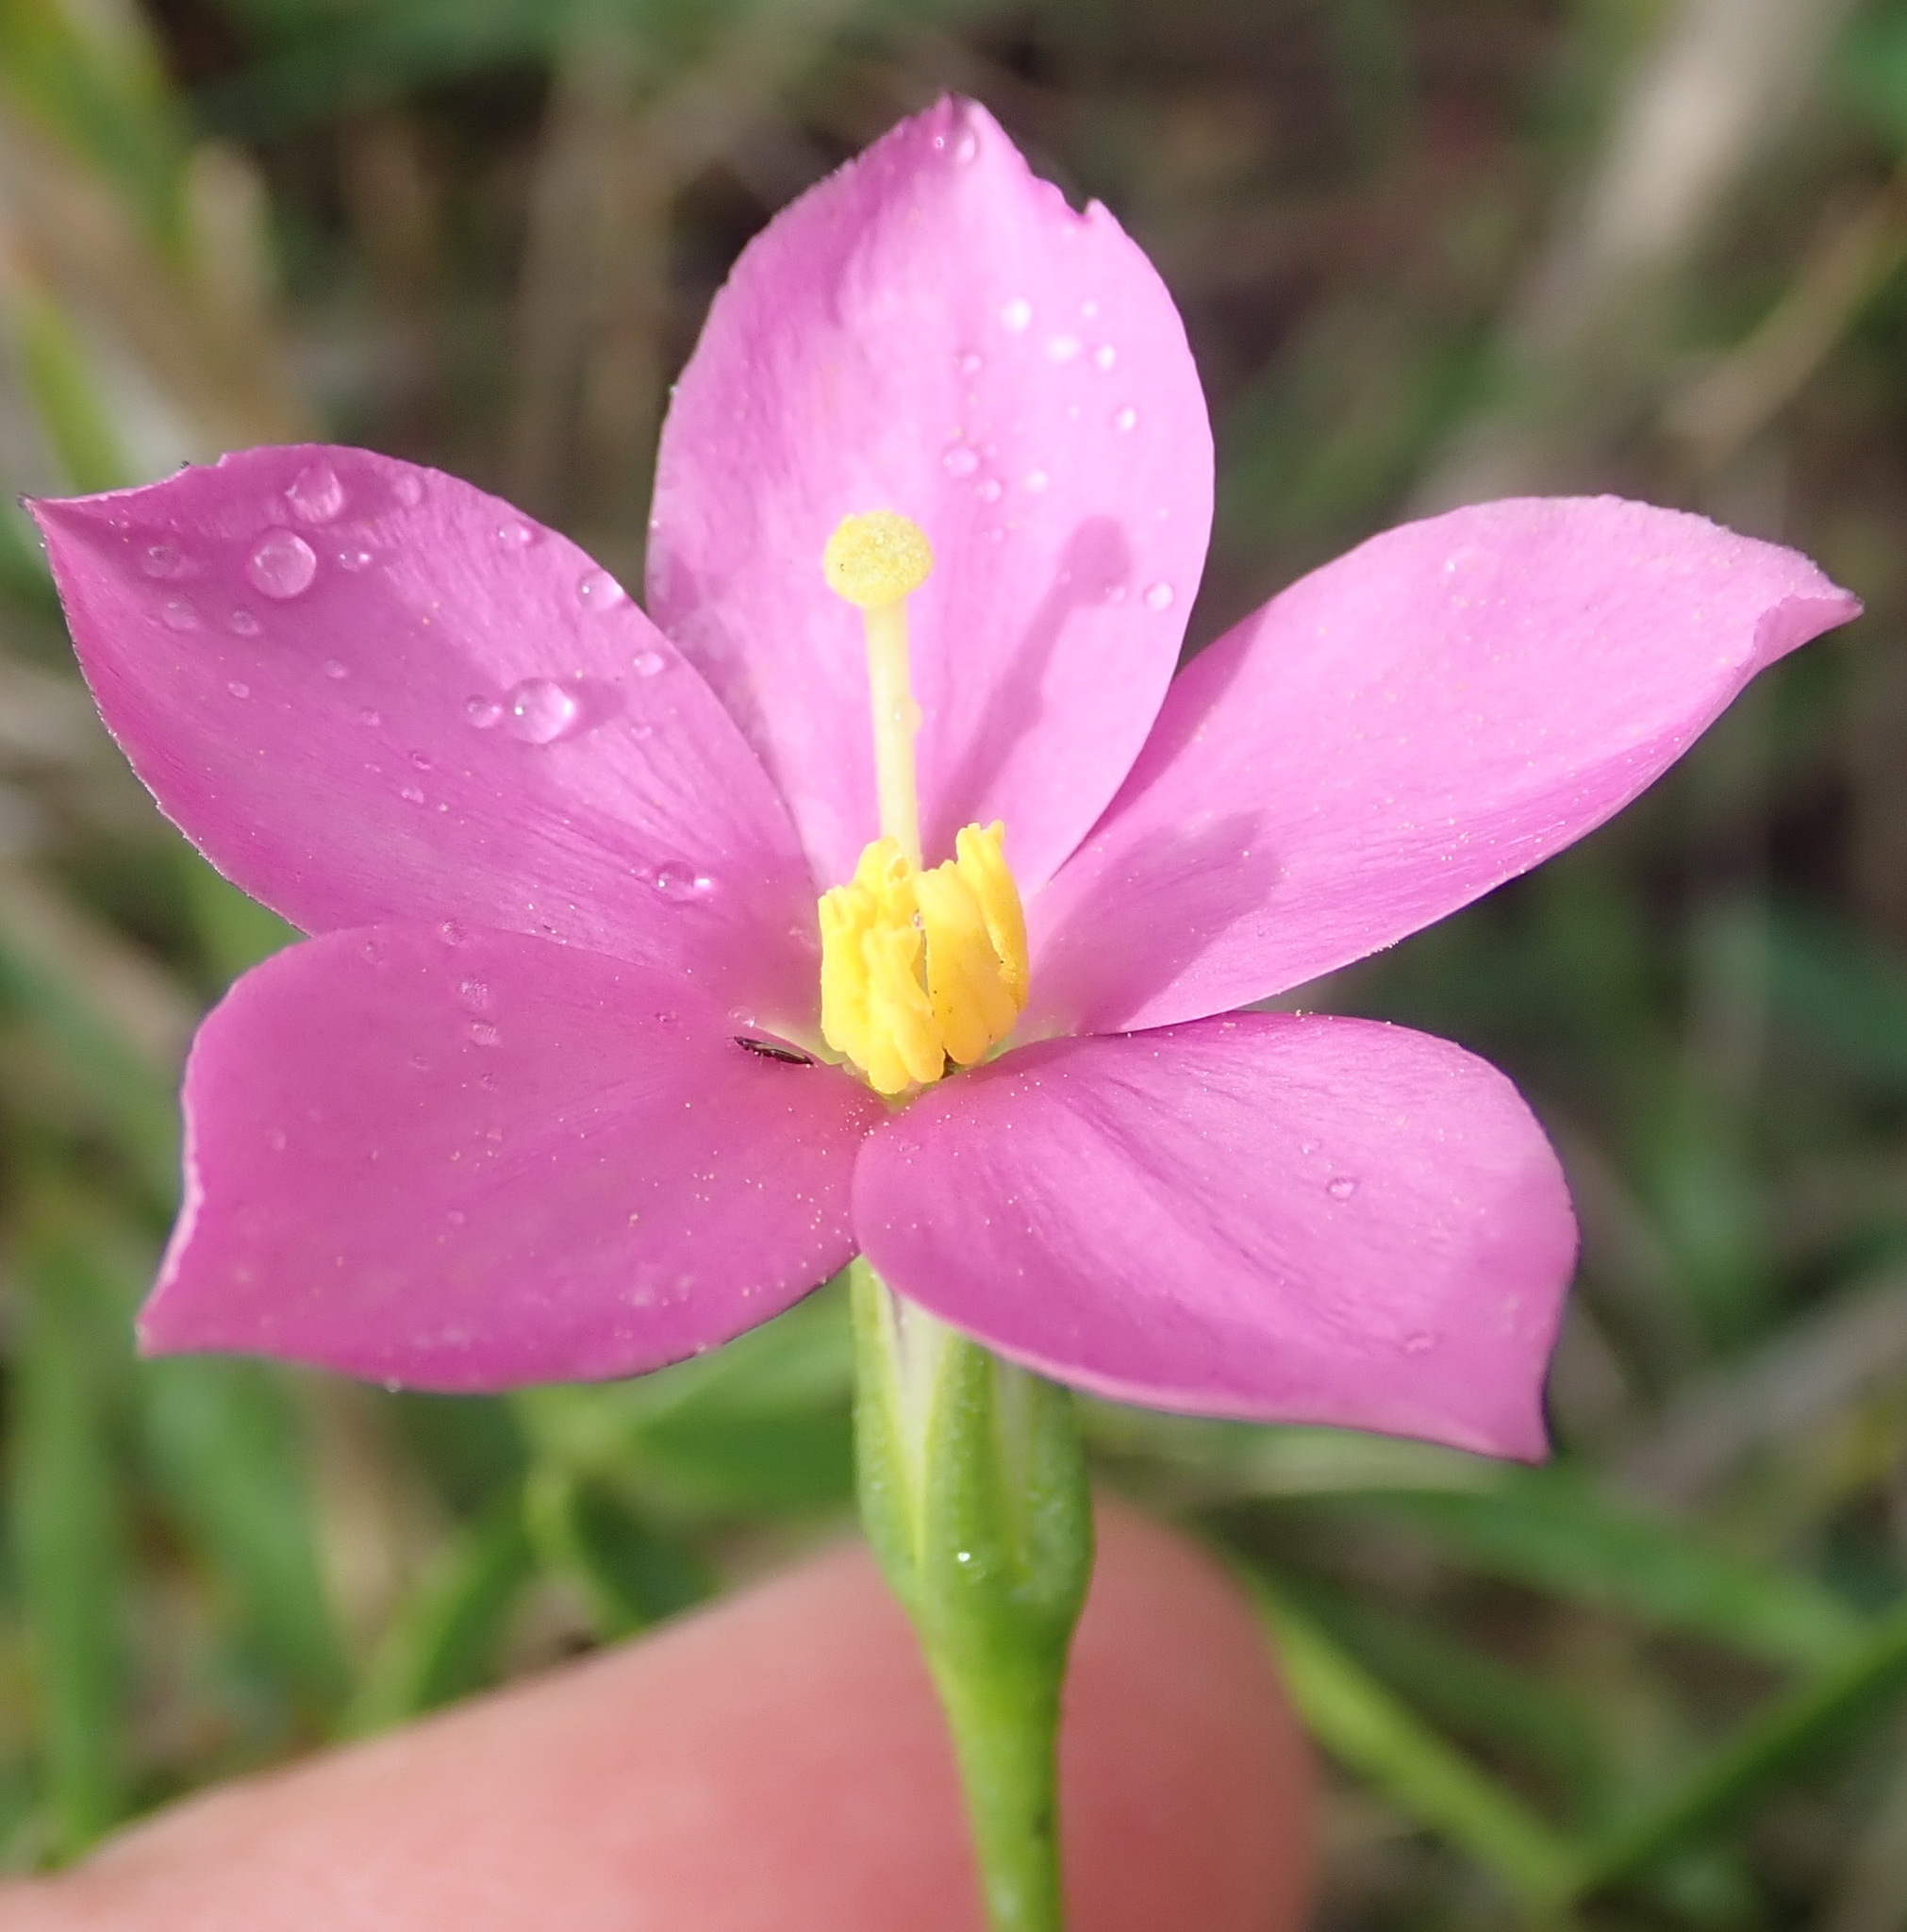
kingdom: Plantae
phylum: Tracheophyta
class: Magnoliopsida
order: Gentianales
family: Gentianaceae
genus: Chironia
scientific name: Chironia tetragona
